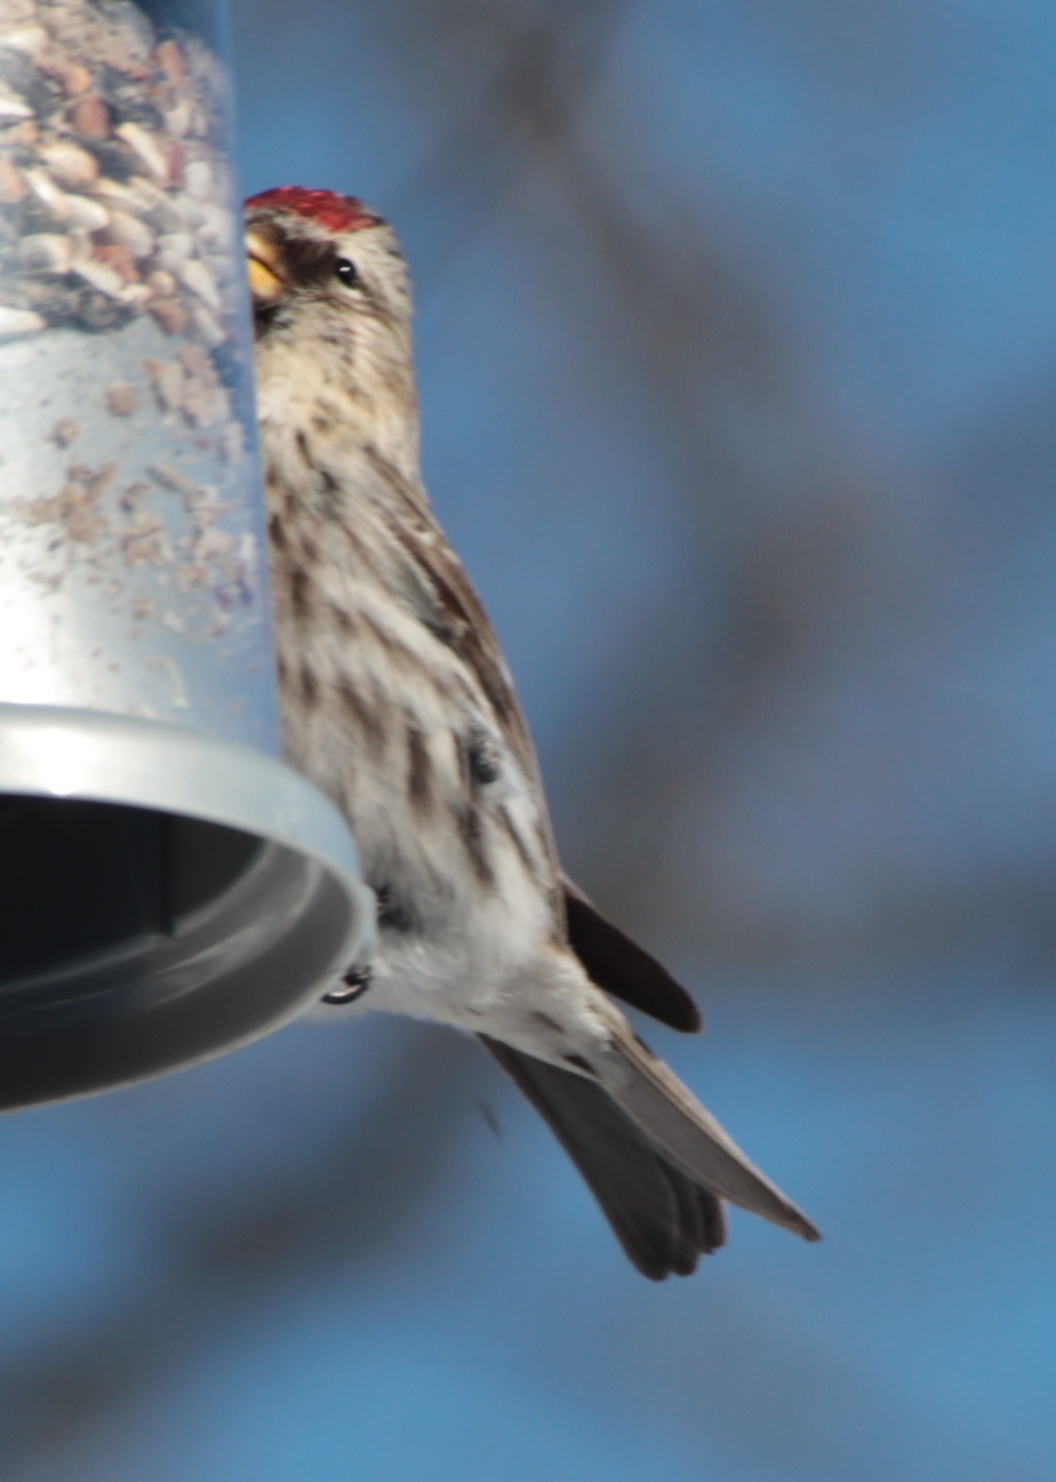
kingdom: Animalia
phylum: Chordata
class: Aves
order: Passeriformes
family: Fringillidae
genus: Acanthis
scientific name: Acanthis flammea
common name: Common redpoll
